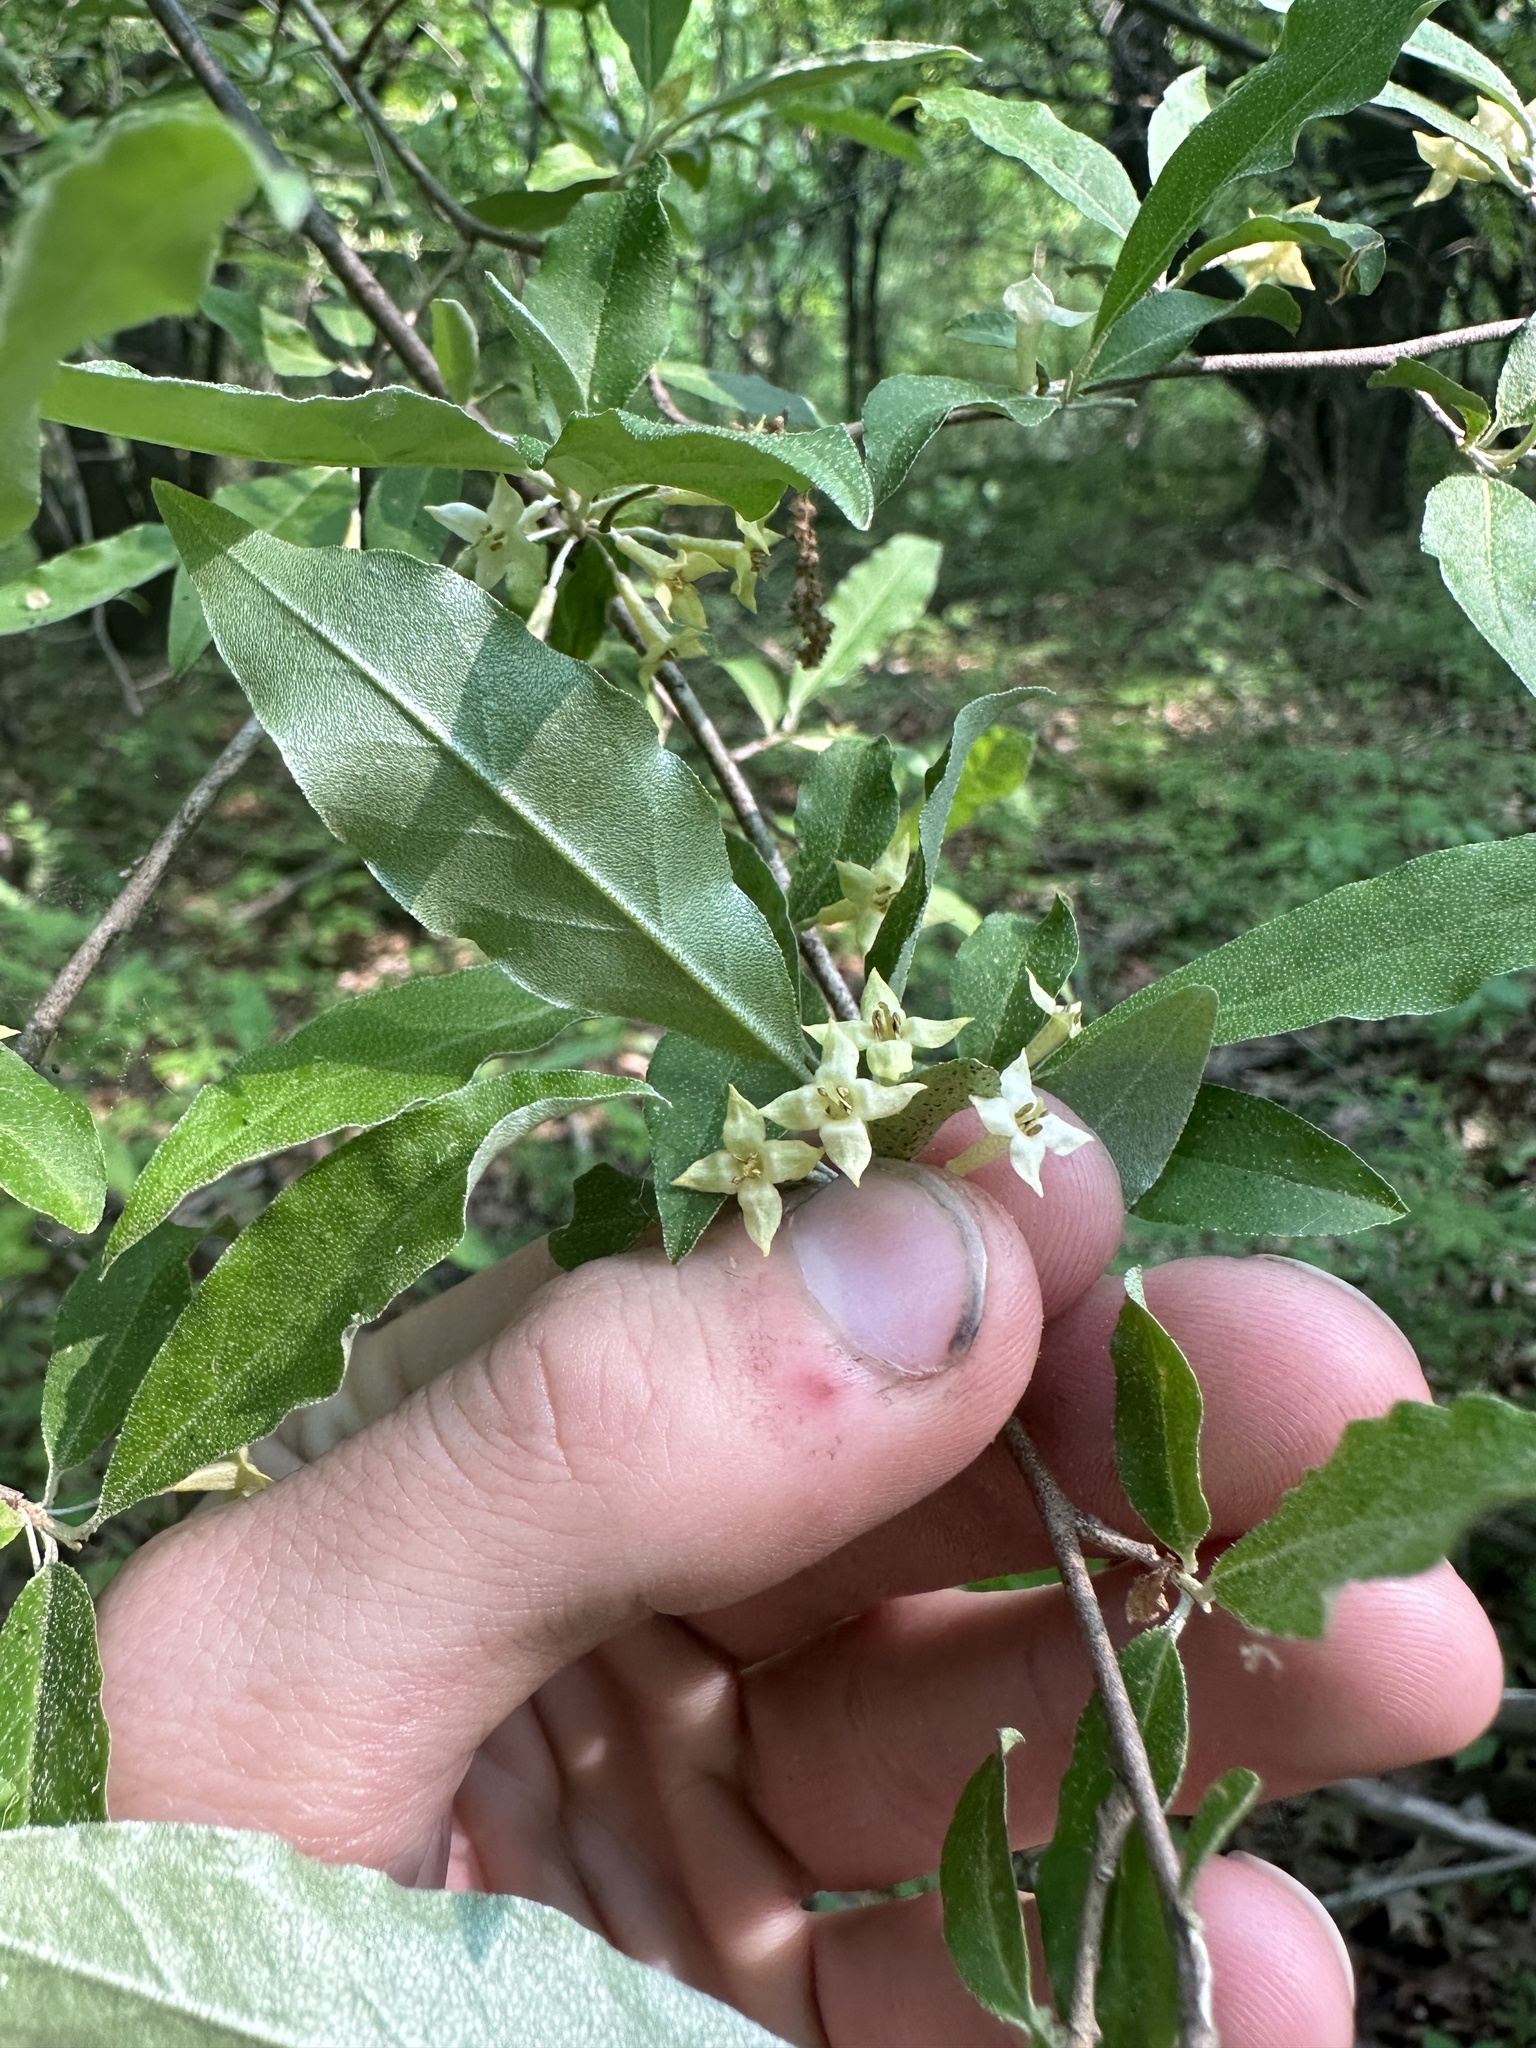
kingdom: Plantae
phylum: Tracheophyta
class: Magnoliopsida
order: Rosales
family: Elaeagnaceae
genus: Elaeagnus
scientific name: Elaeagnus umbellata
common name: Autumn olive
